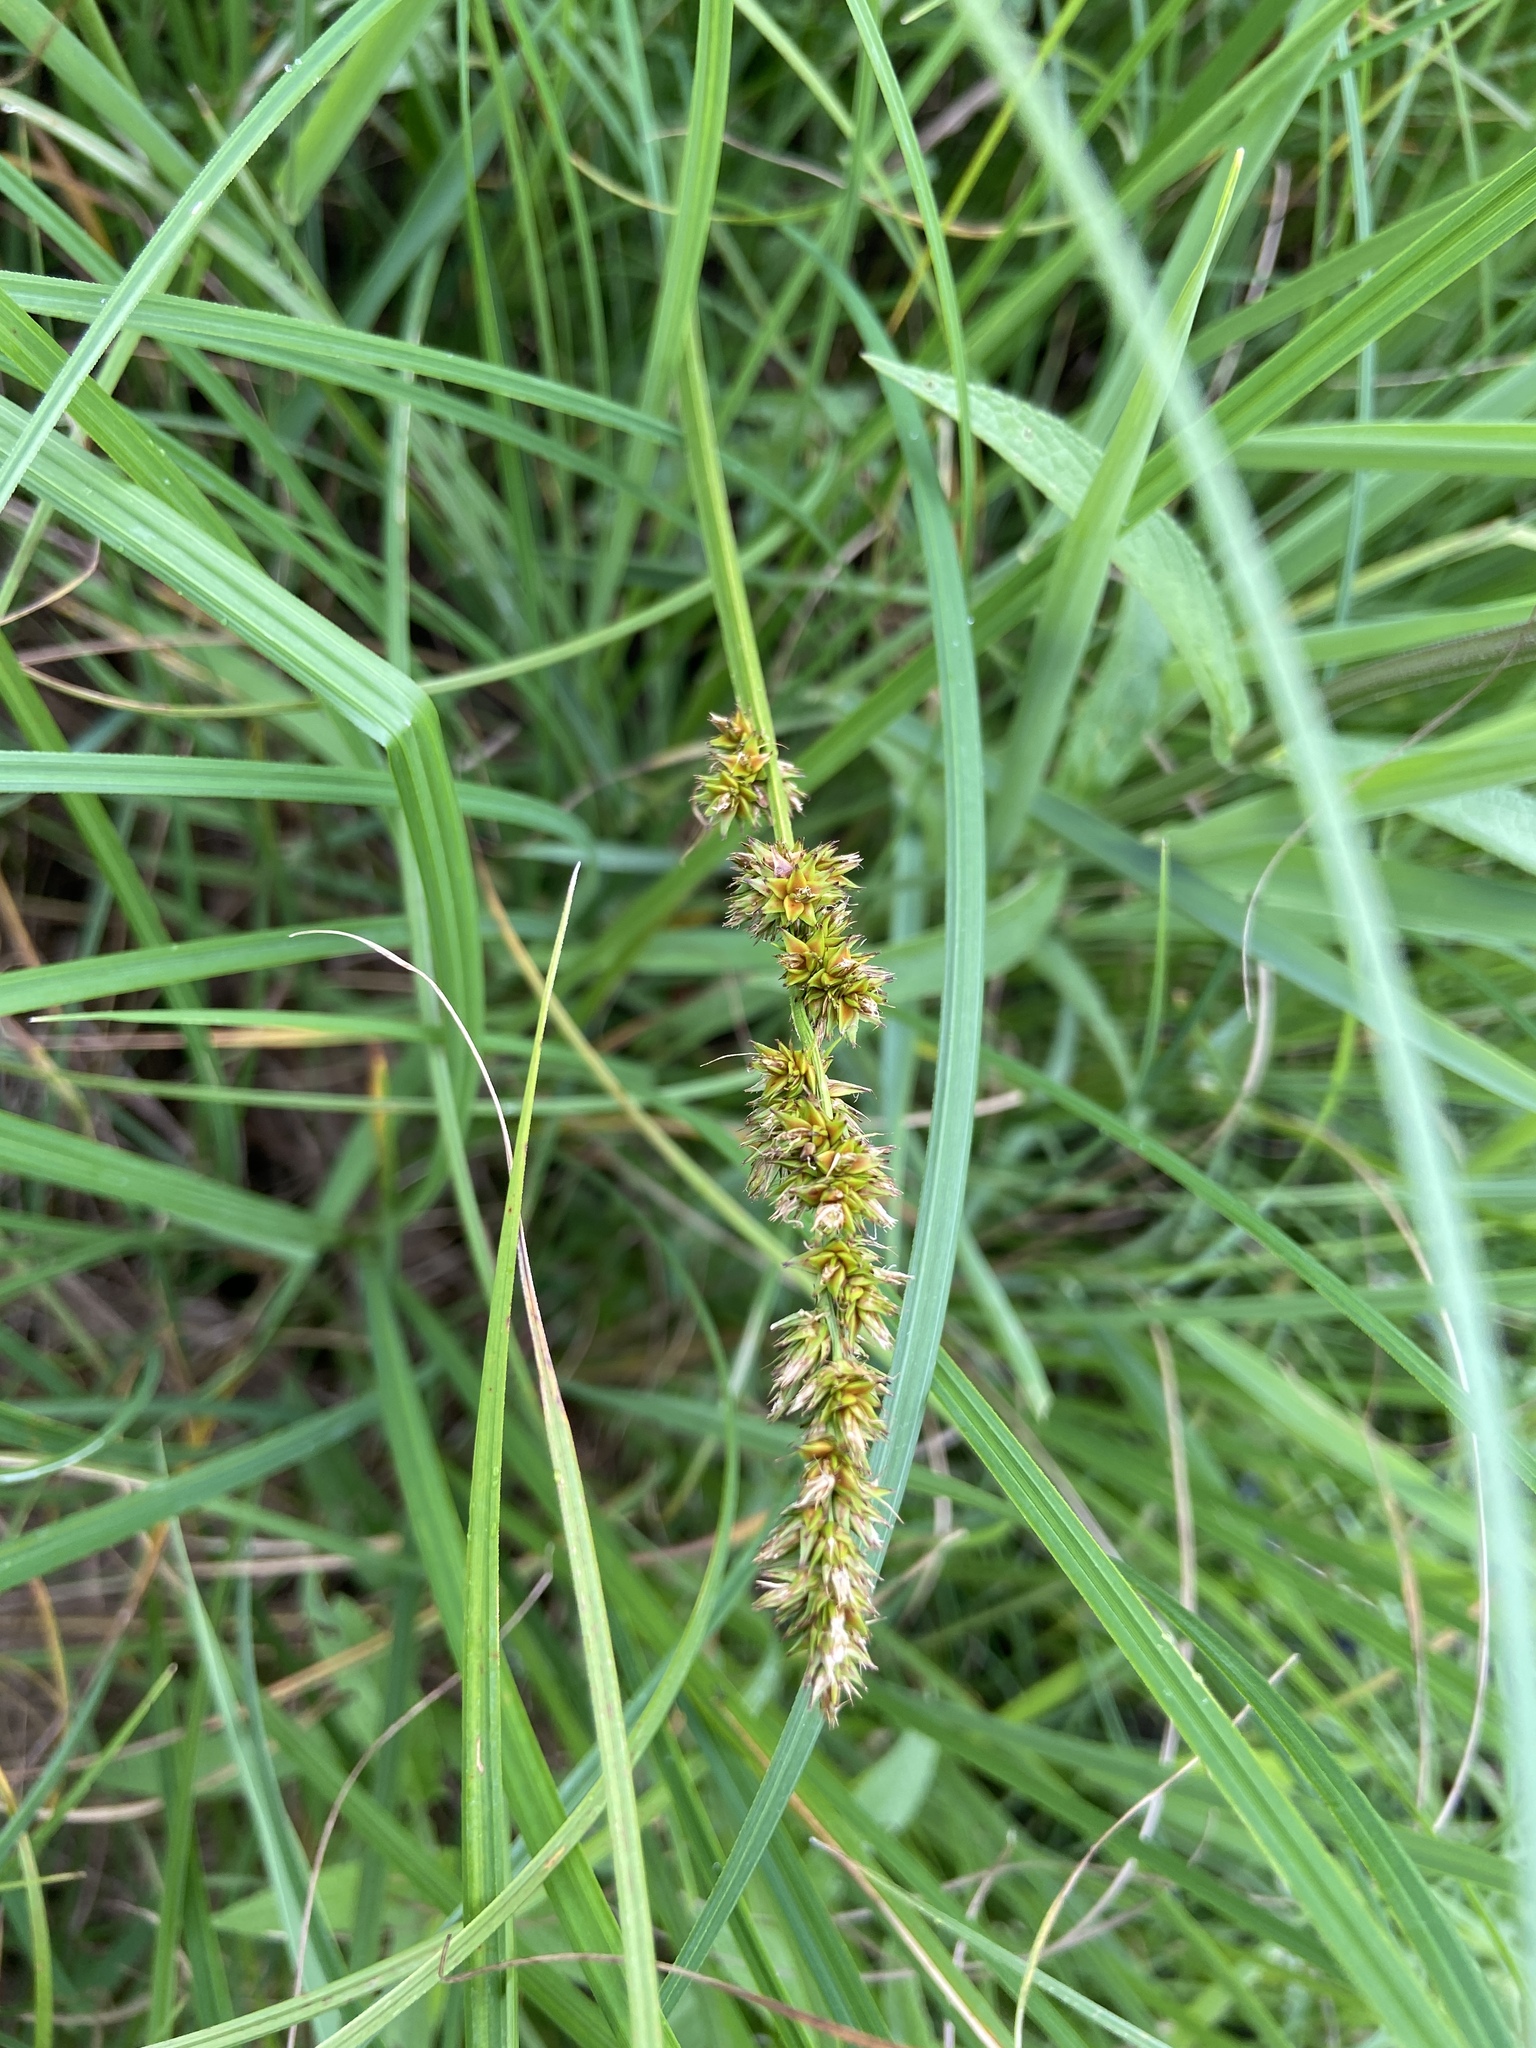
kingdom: Plantae
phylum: Tracheophyta
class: Liliopsida
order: Poales
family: Cyperaceae
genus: Carex
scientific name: Carex vulpina
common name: True fox-sedge
